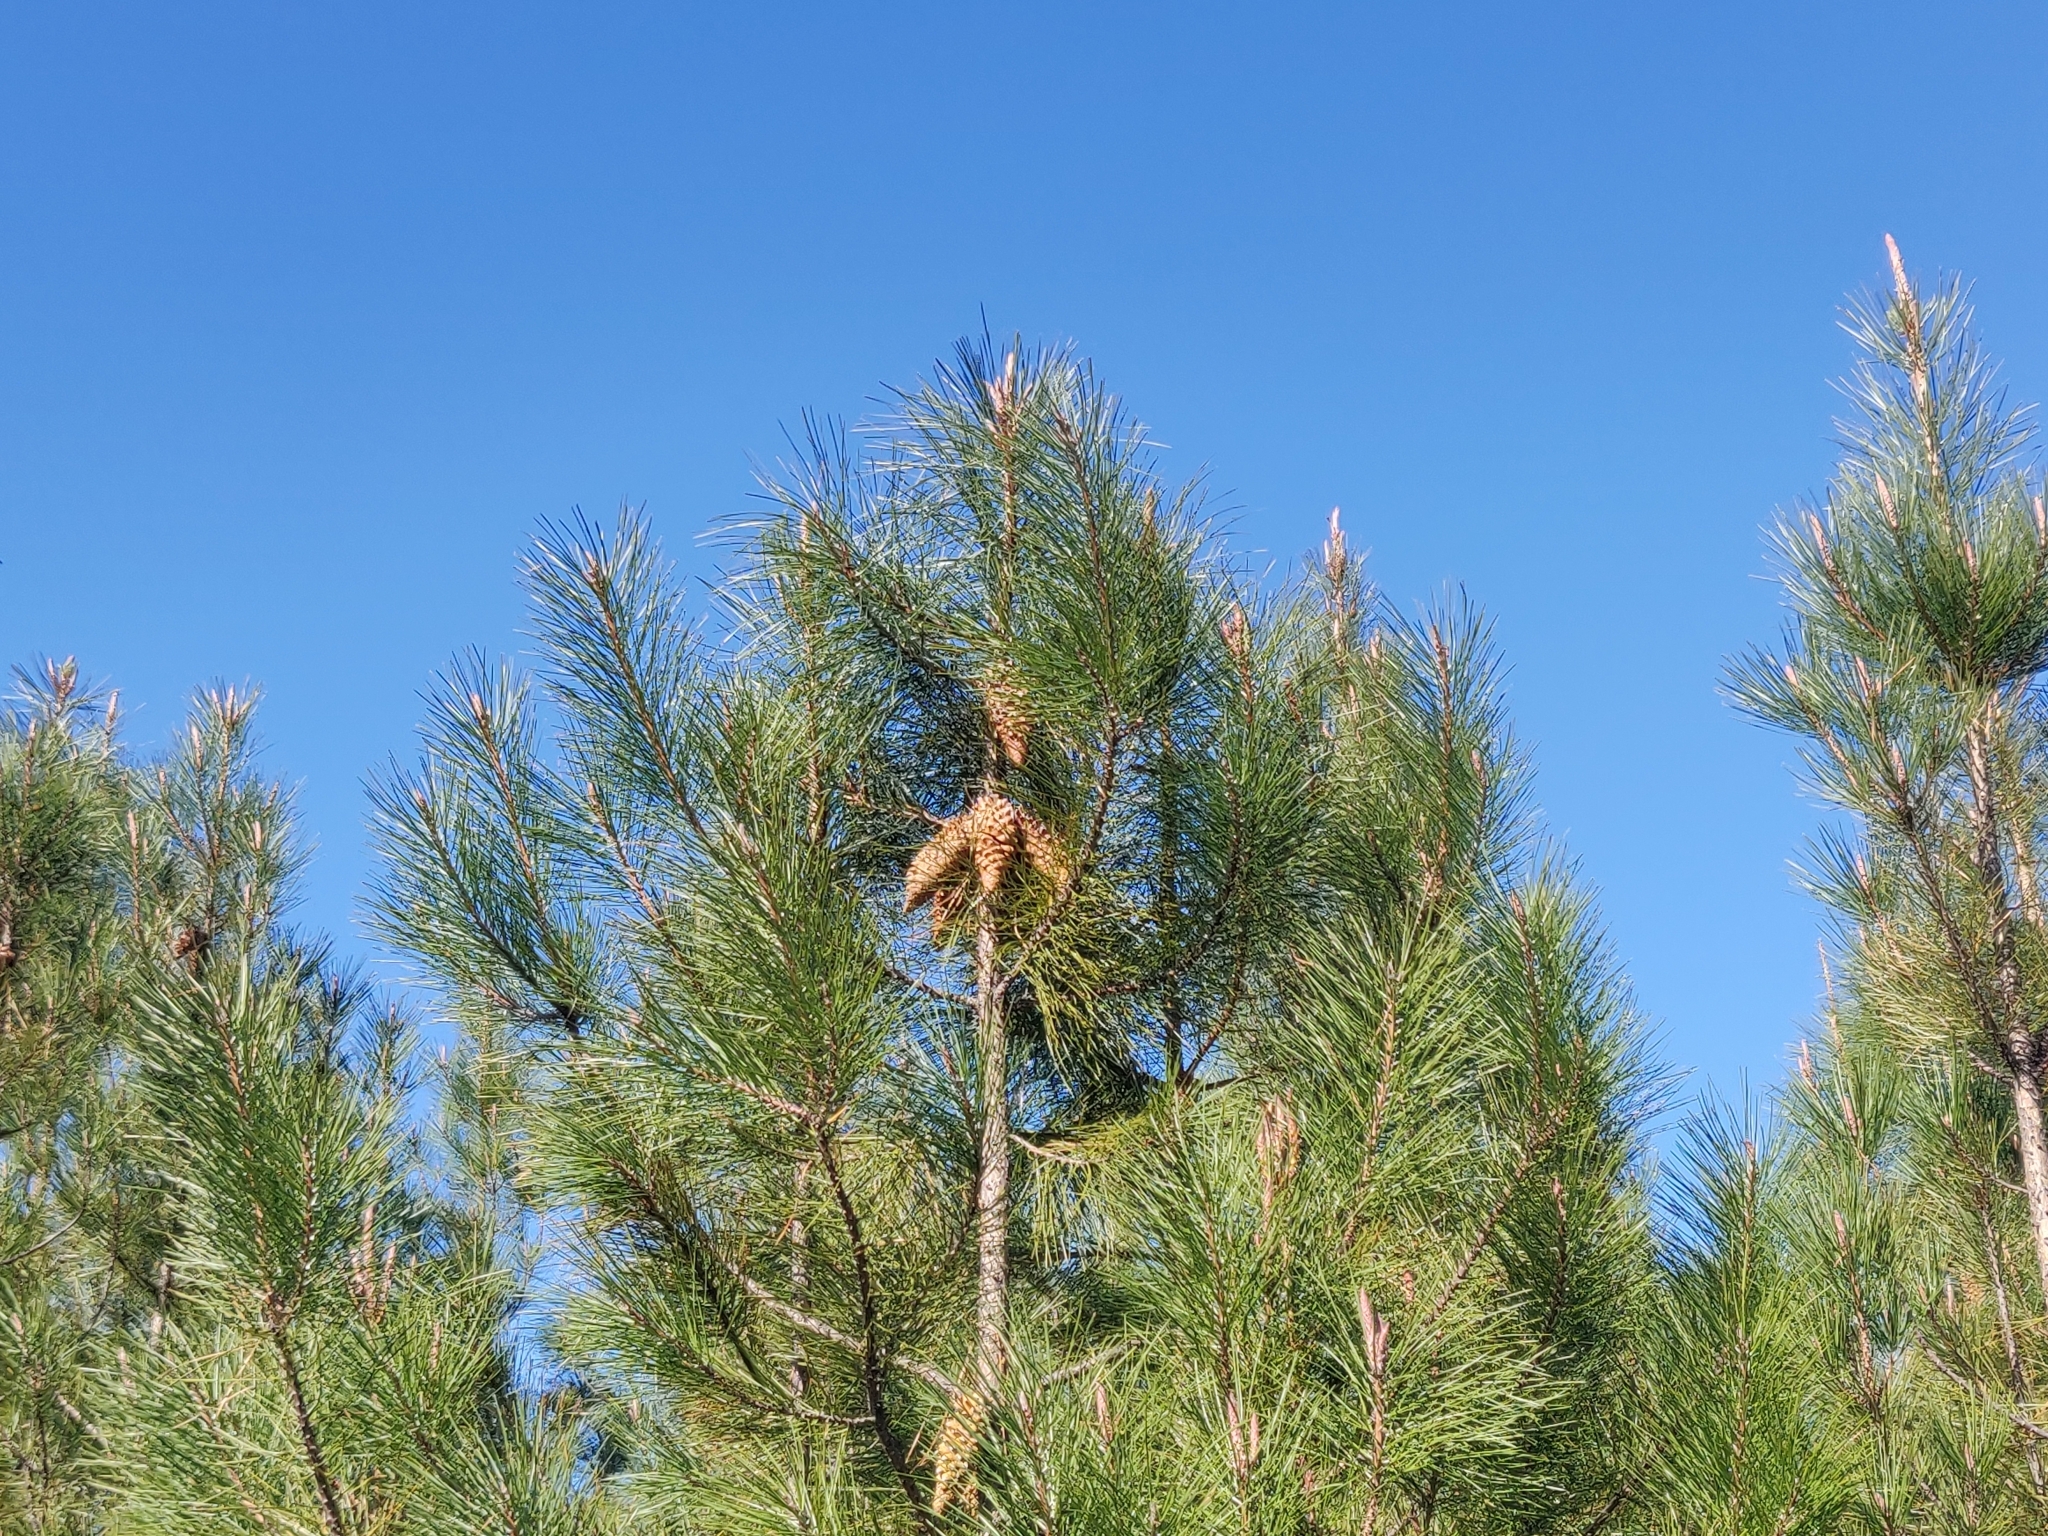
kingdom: Plantae
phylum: Tracheophyta
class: Pinopsida
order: Pinales
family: Pinaceae
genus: Pinus
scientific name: Pinus attenuata
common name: Knobcone pine
